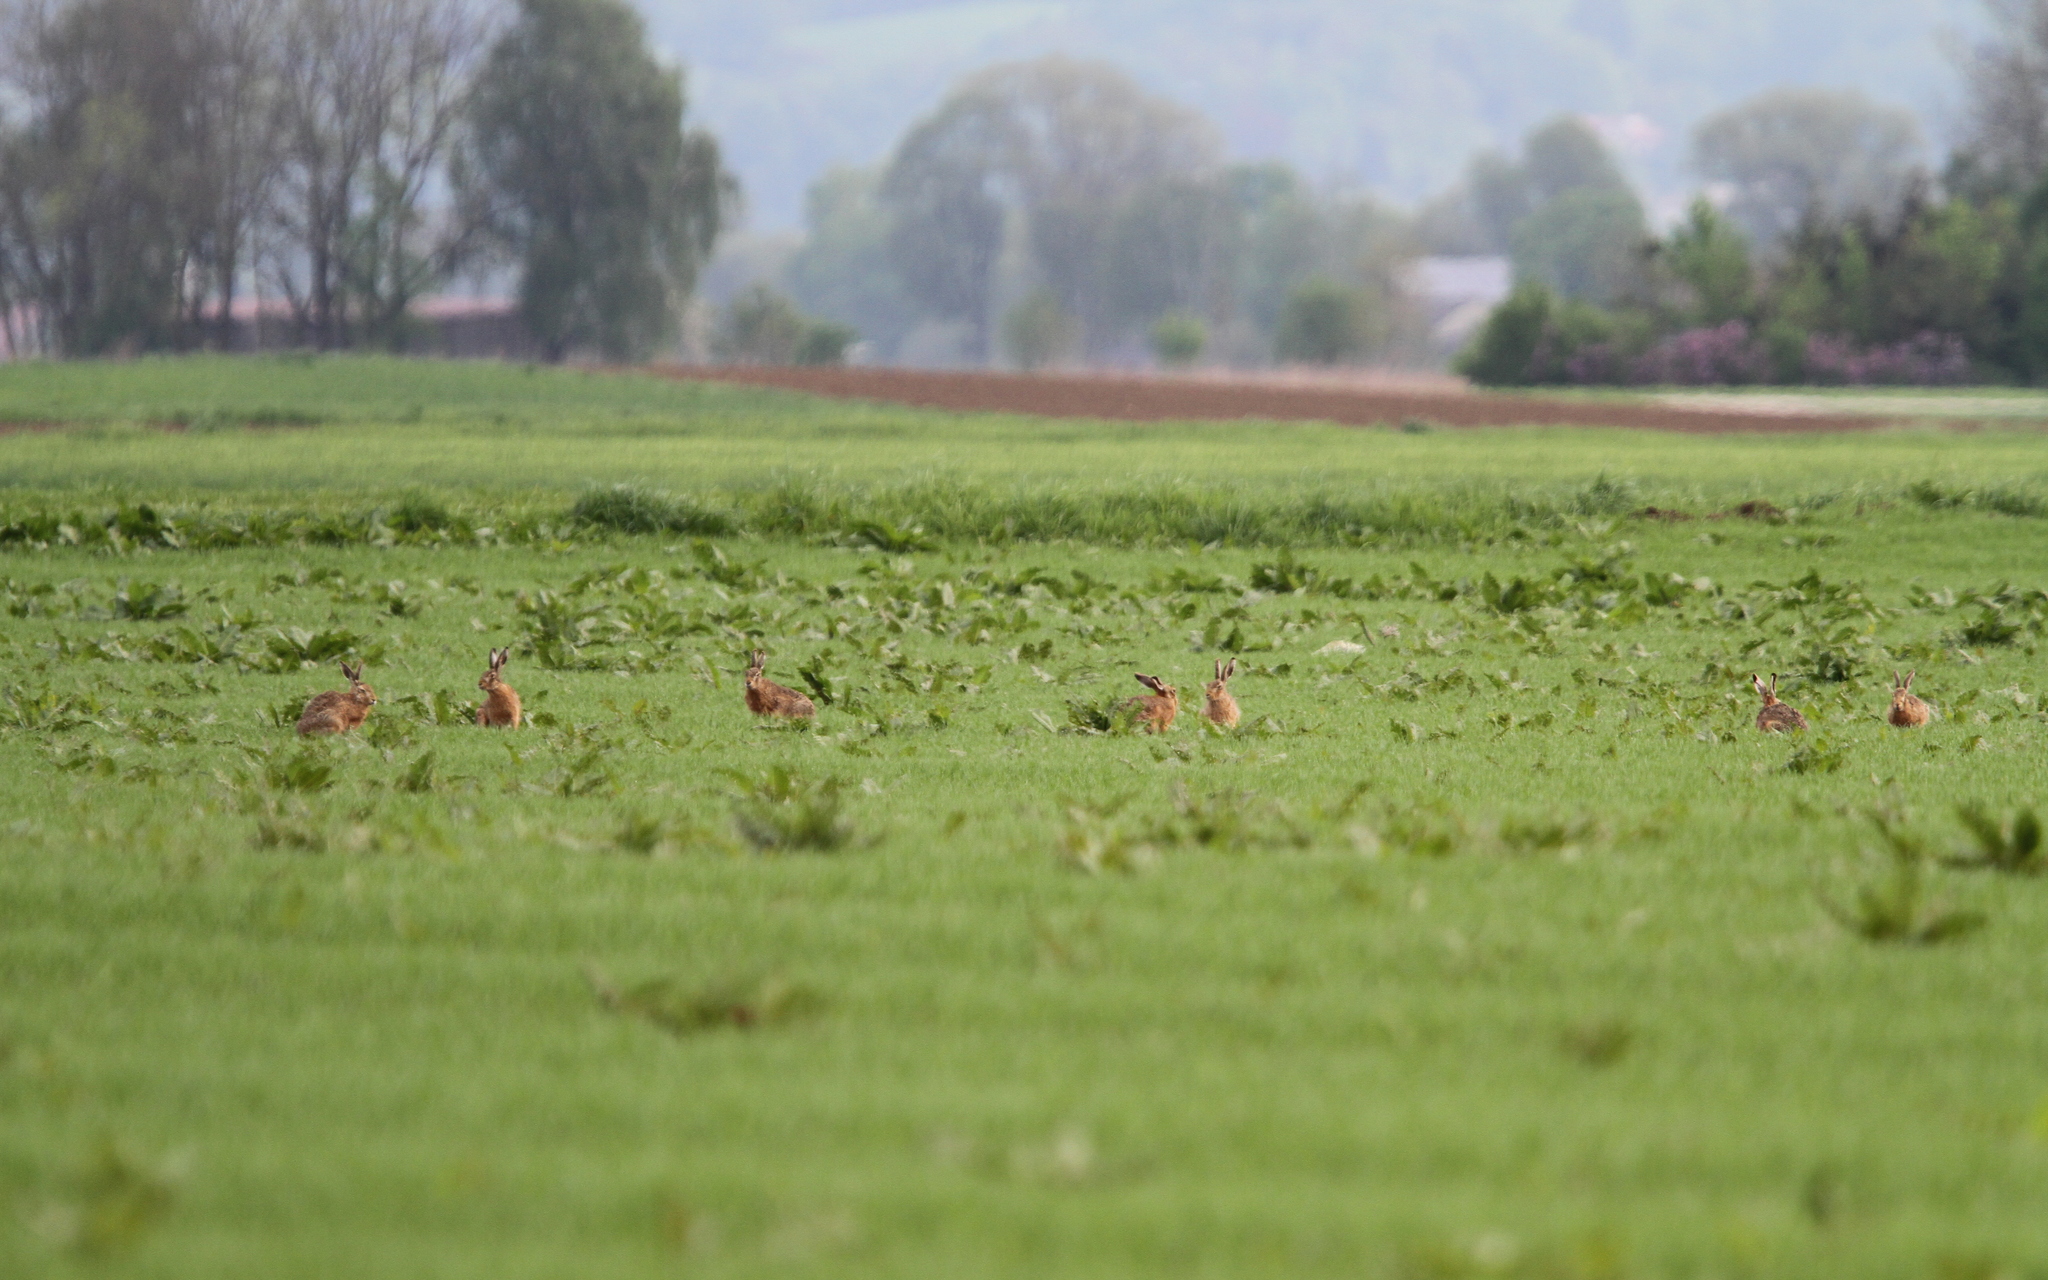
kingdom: Animalia
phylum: Chordata
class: Mammalia
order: Lagomorpha
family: Leporidae
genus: Lepus
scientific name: Lepus europaeus
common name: European hare
